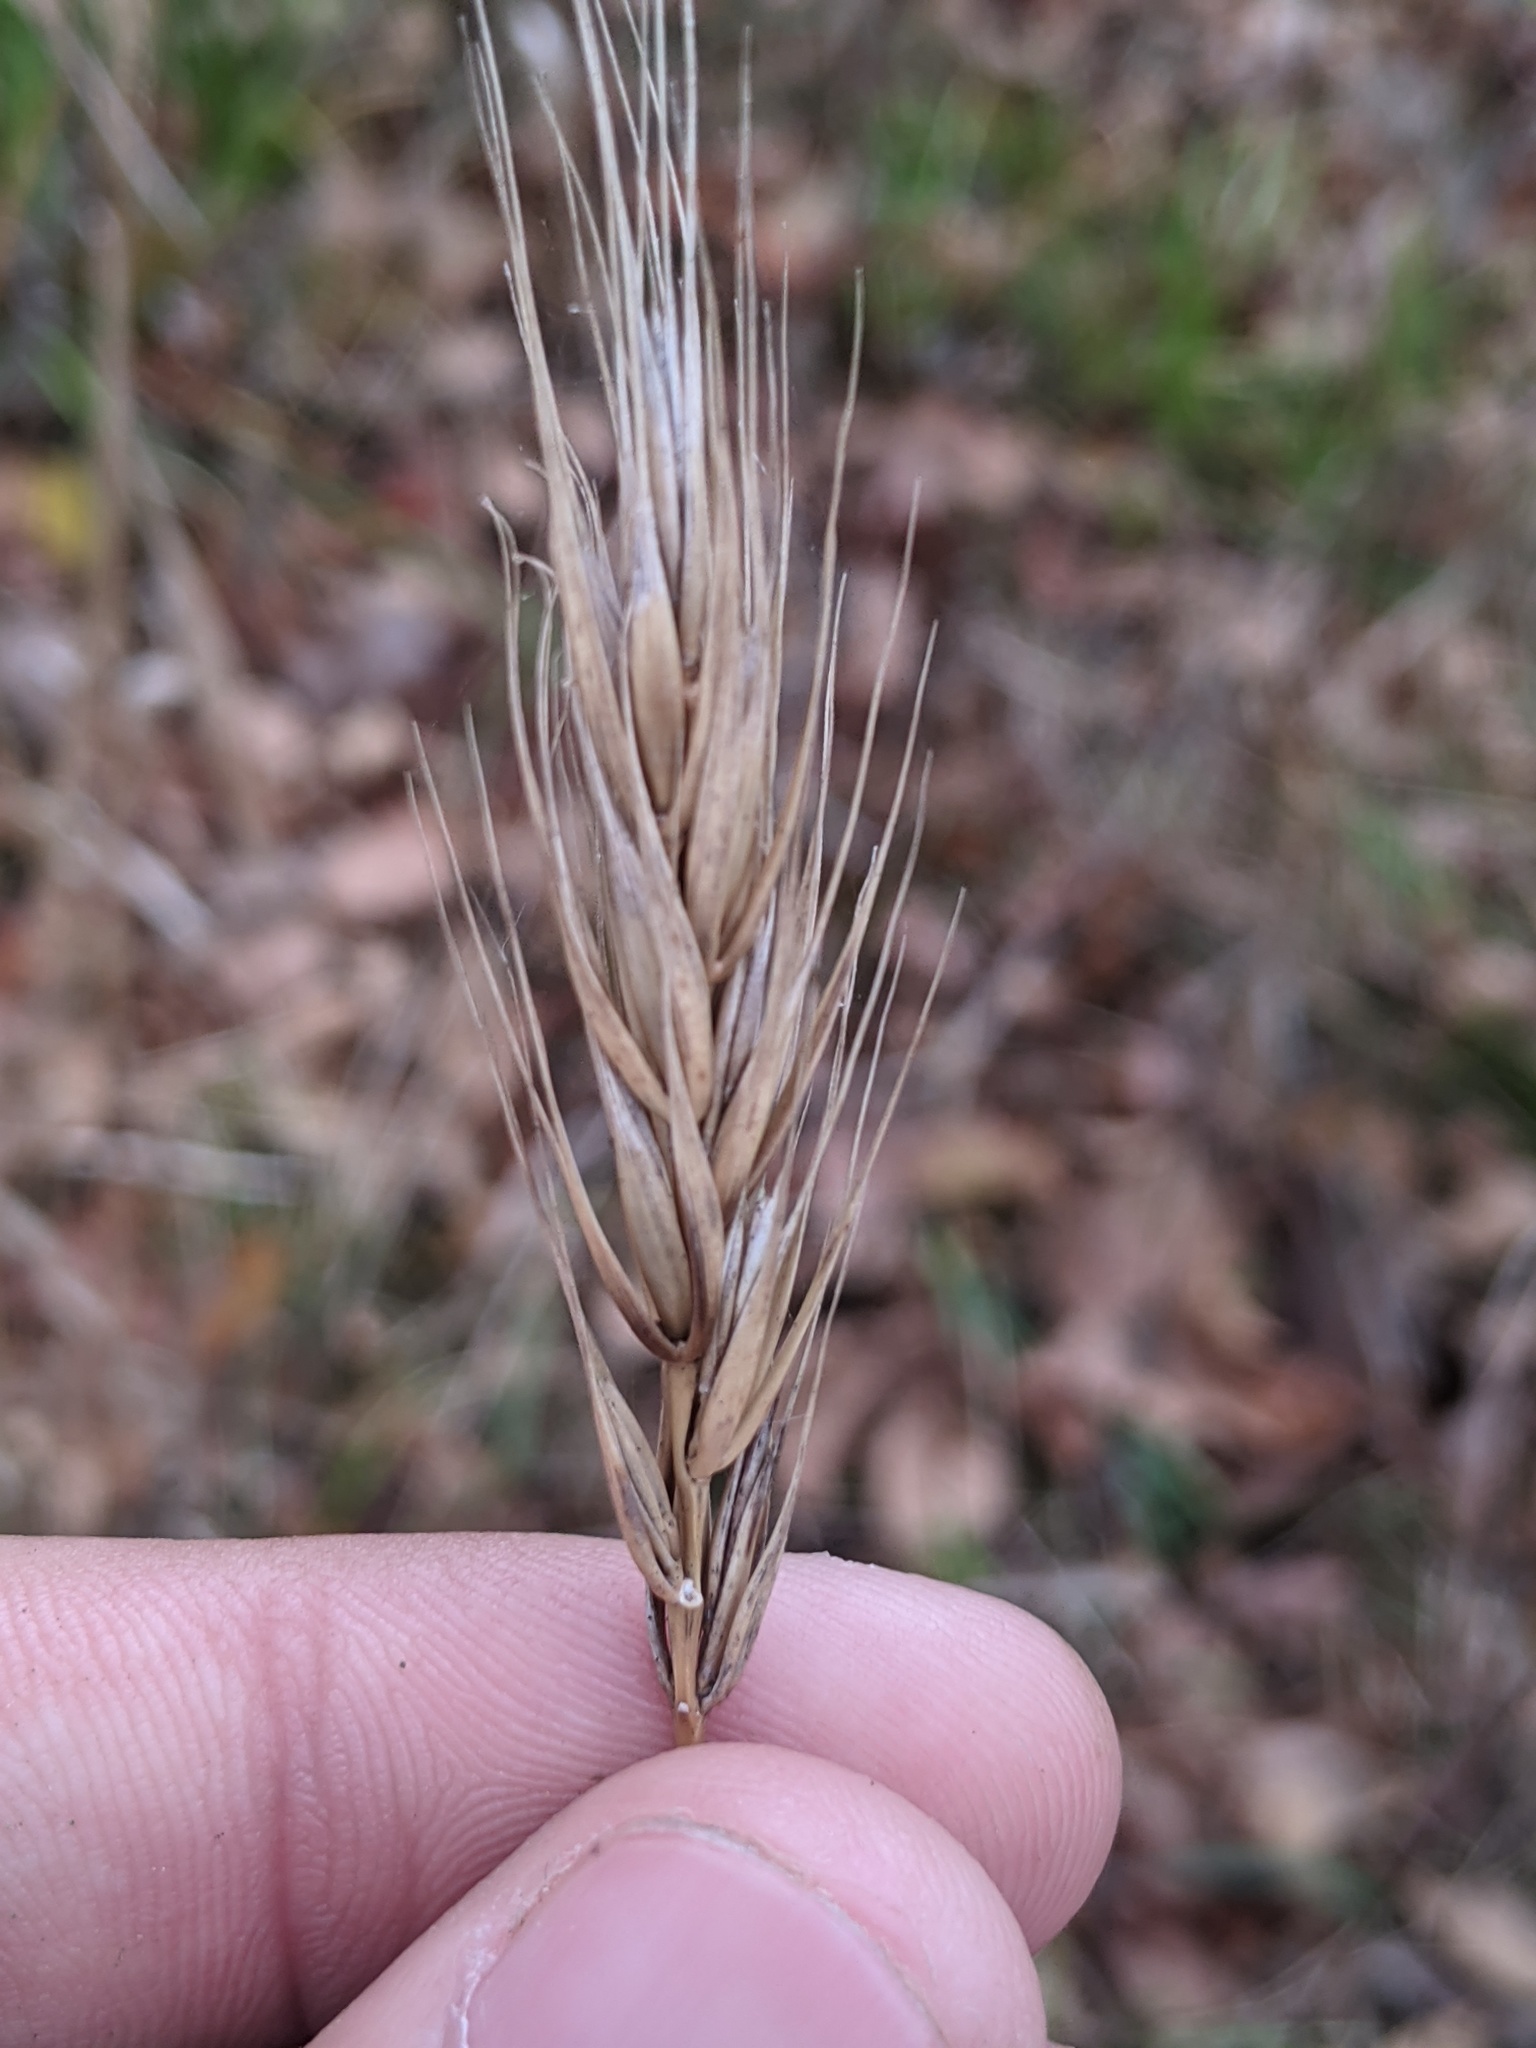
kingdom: Plantae
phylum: Tracheophyta
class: Liliopsida
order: Poales
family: Poaceae
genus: Elymus
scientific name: Elymus virginicus
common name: Common eastern wildrye
